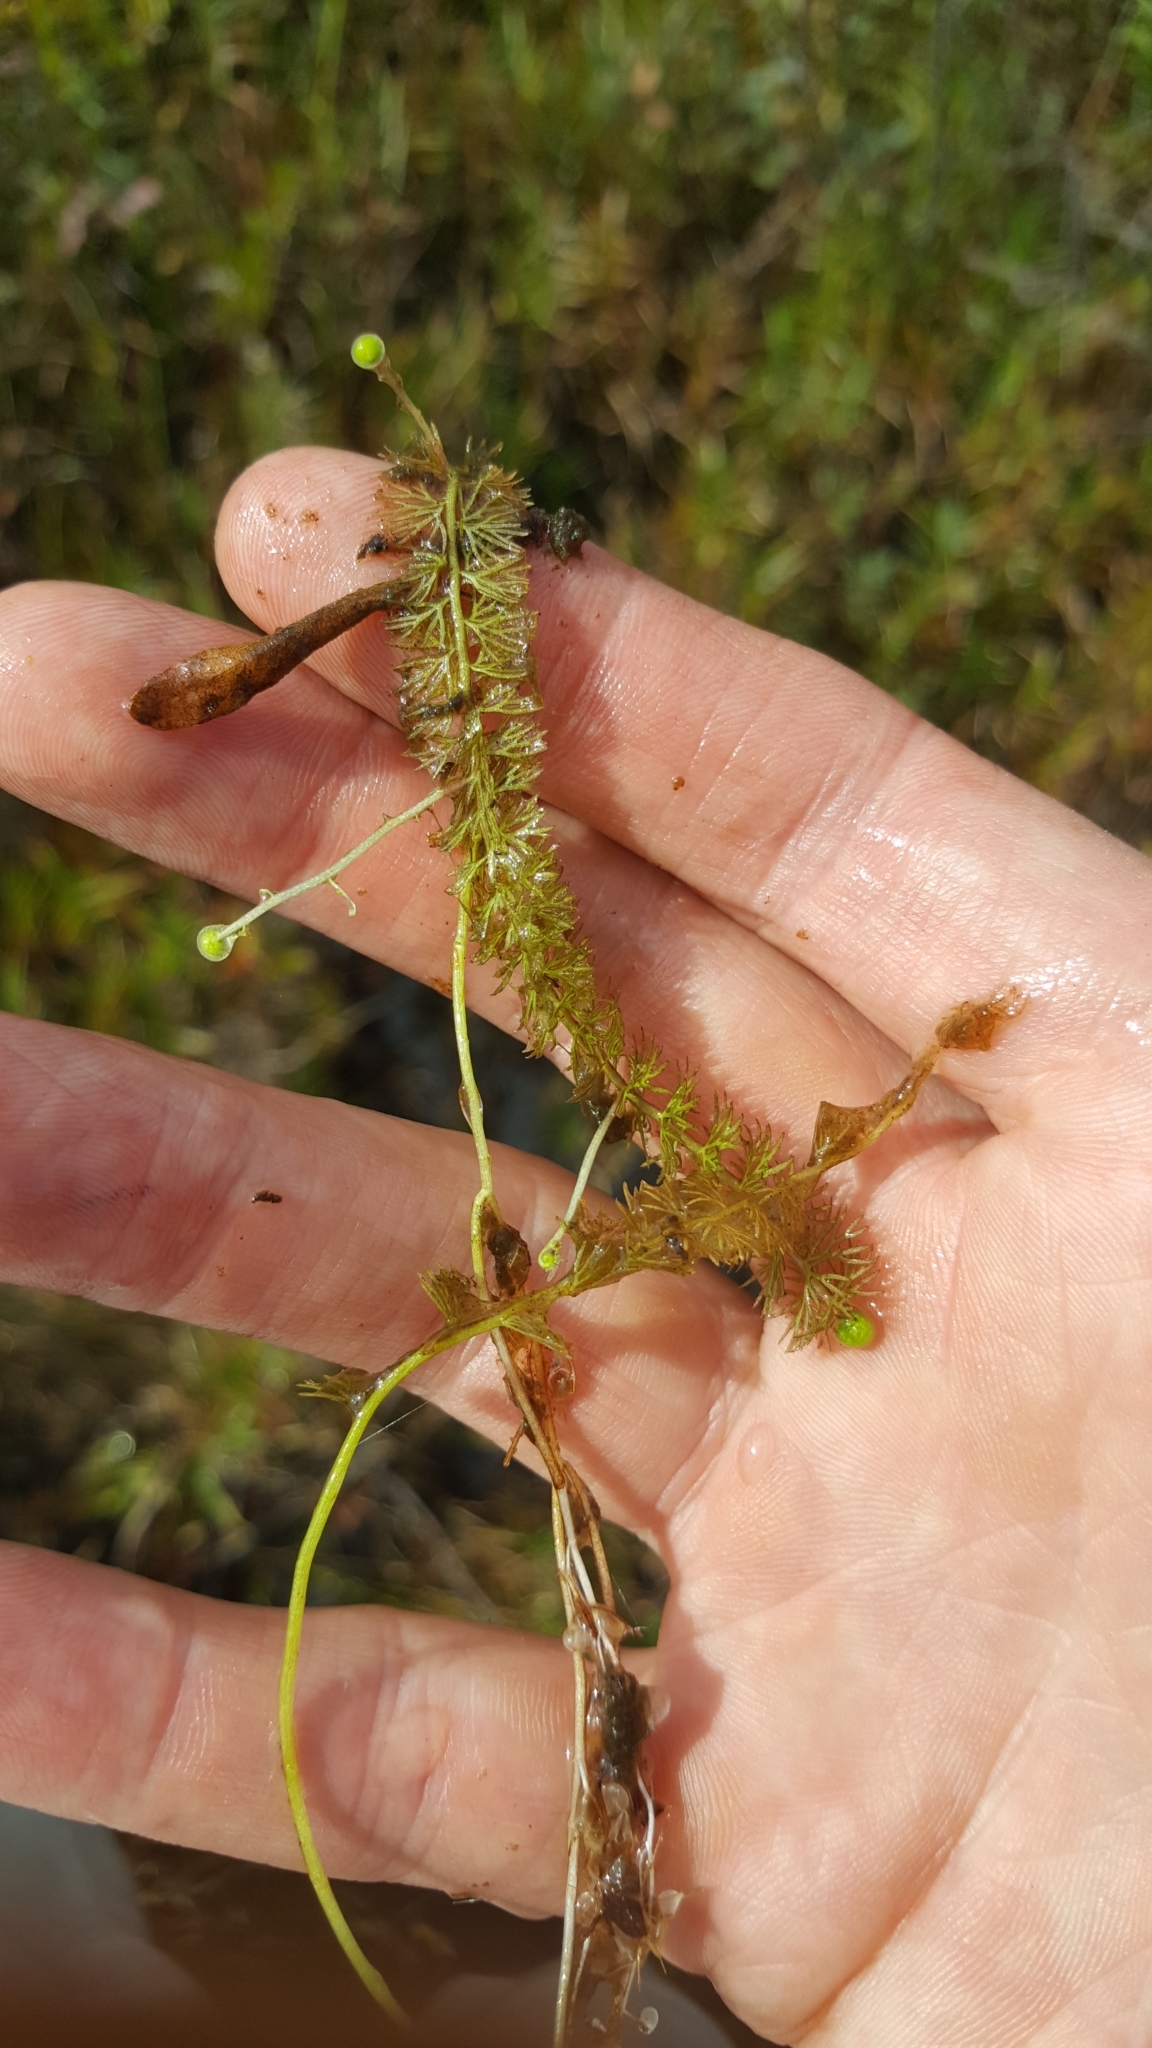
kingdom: Plantae
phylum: Tracheophyta
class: Magnoliopsida
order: Lamiales
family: Lentibulariaceae
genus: Utricularia
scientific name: Utricularia intermedia
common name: Intermediate bladderwort
